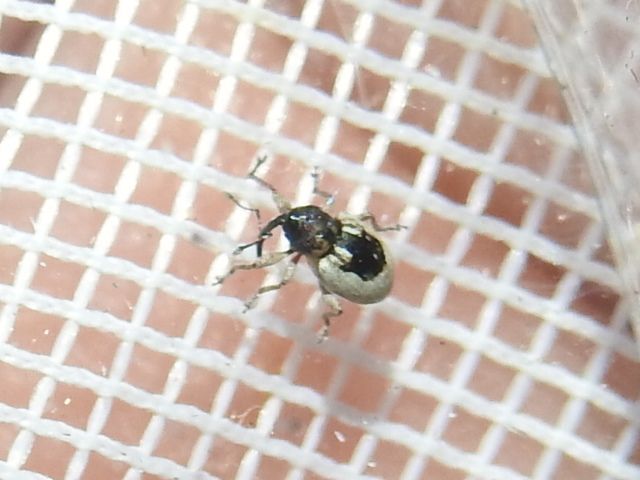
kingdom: Animalia
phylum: Arthropoda
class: Insecta
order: Coleoptera
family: Curculionidae
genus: Smicronyx
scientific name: Smicronyx quadrifer
